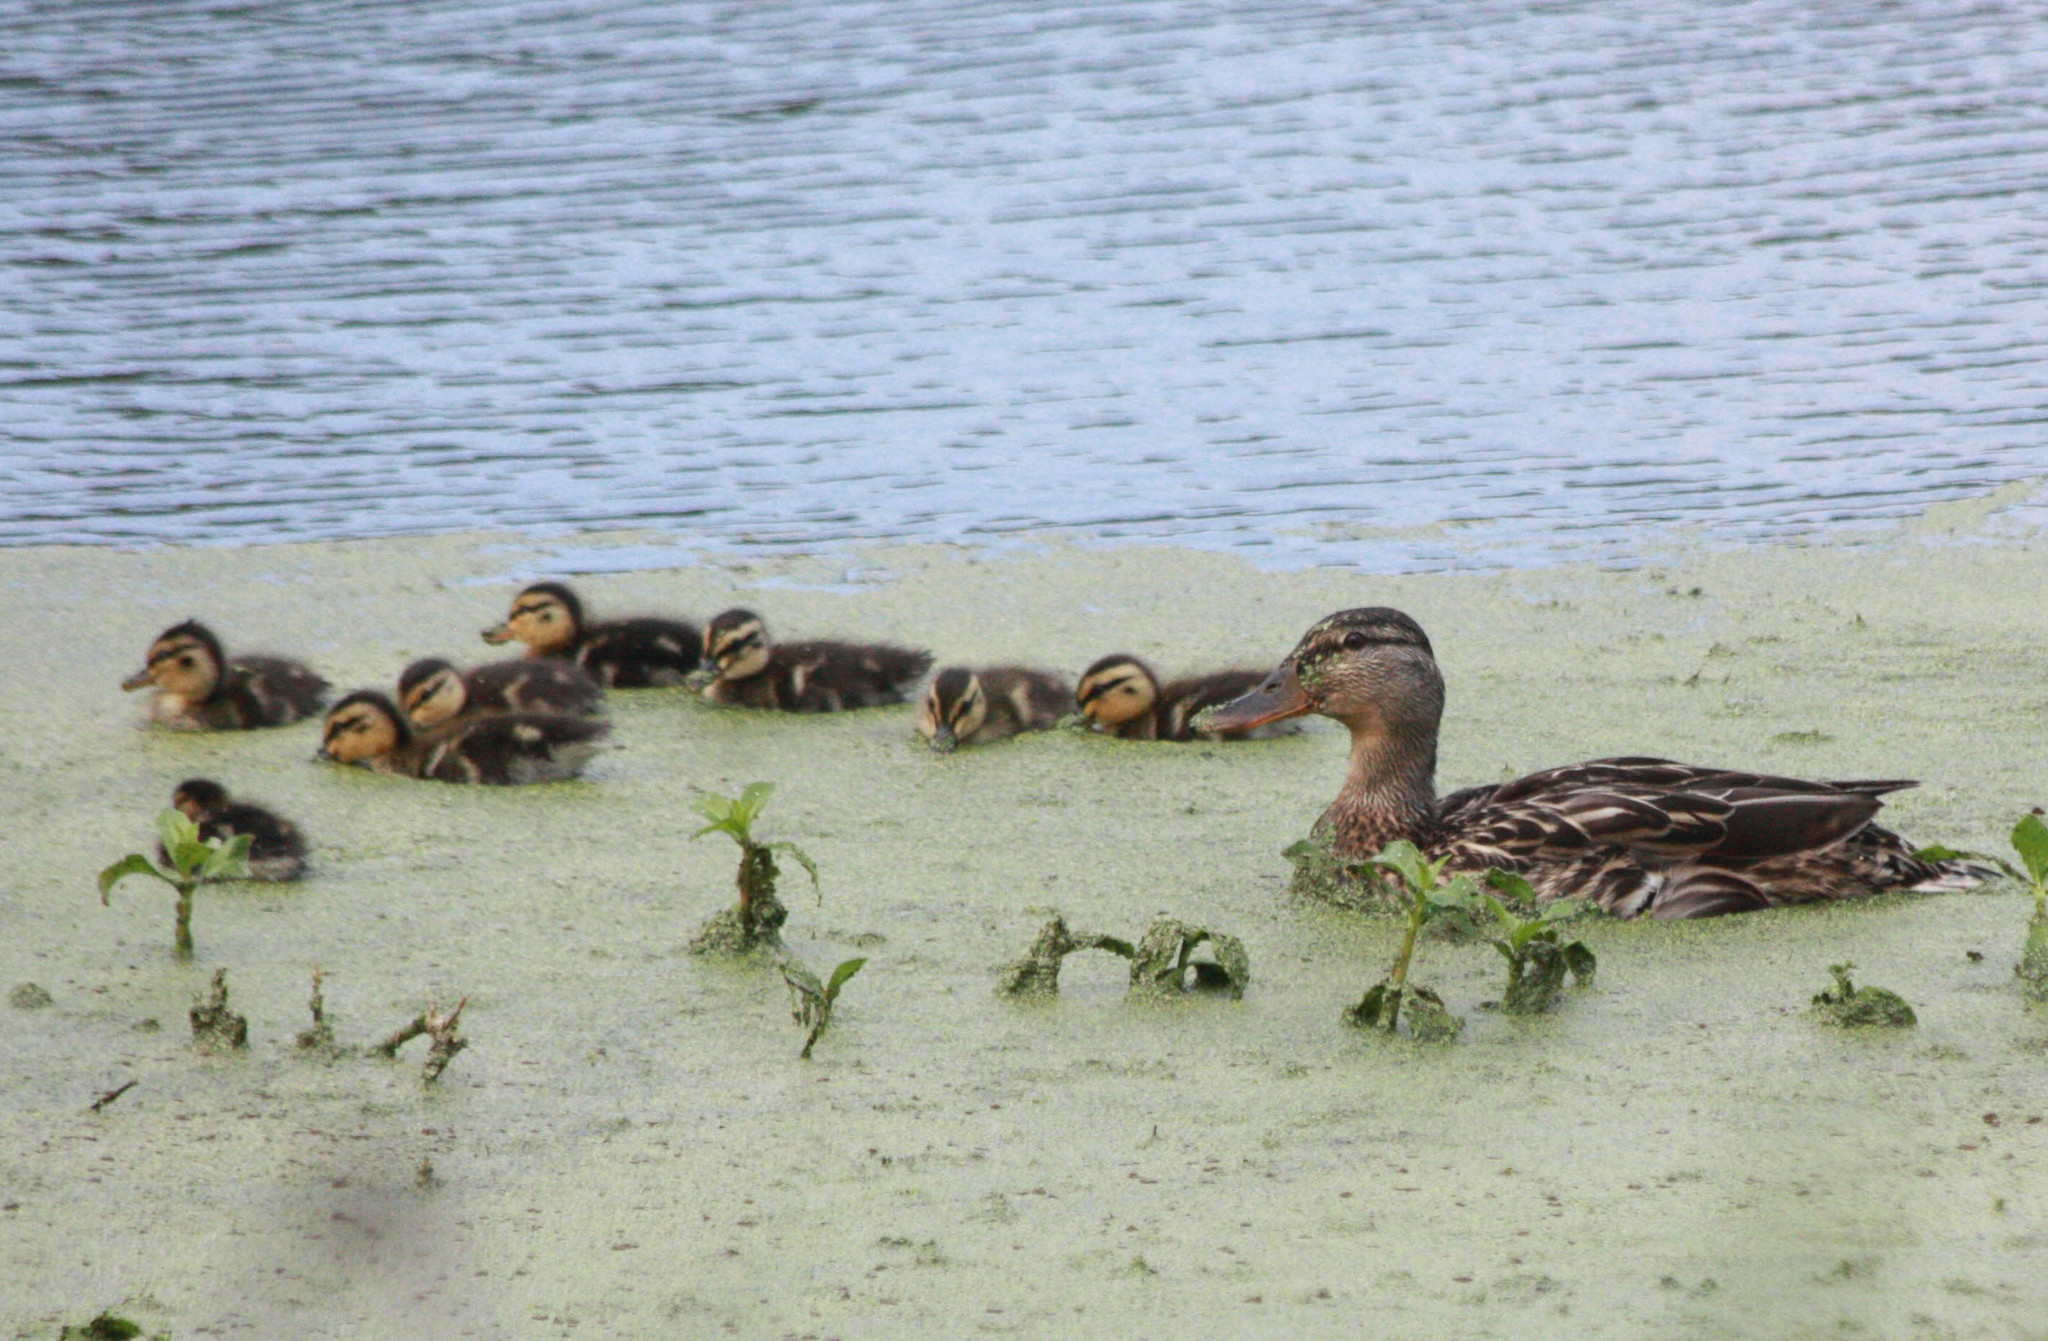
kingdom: Animalia
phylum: Chordata
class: Aves
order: Anseriformes
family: Anatidae
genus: Anas
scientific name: Anas platyrhynchos
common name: Mallard
